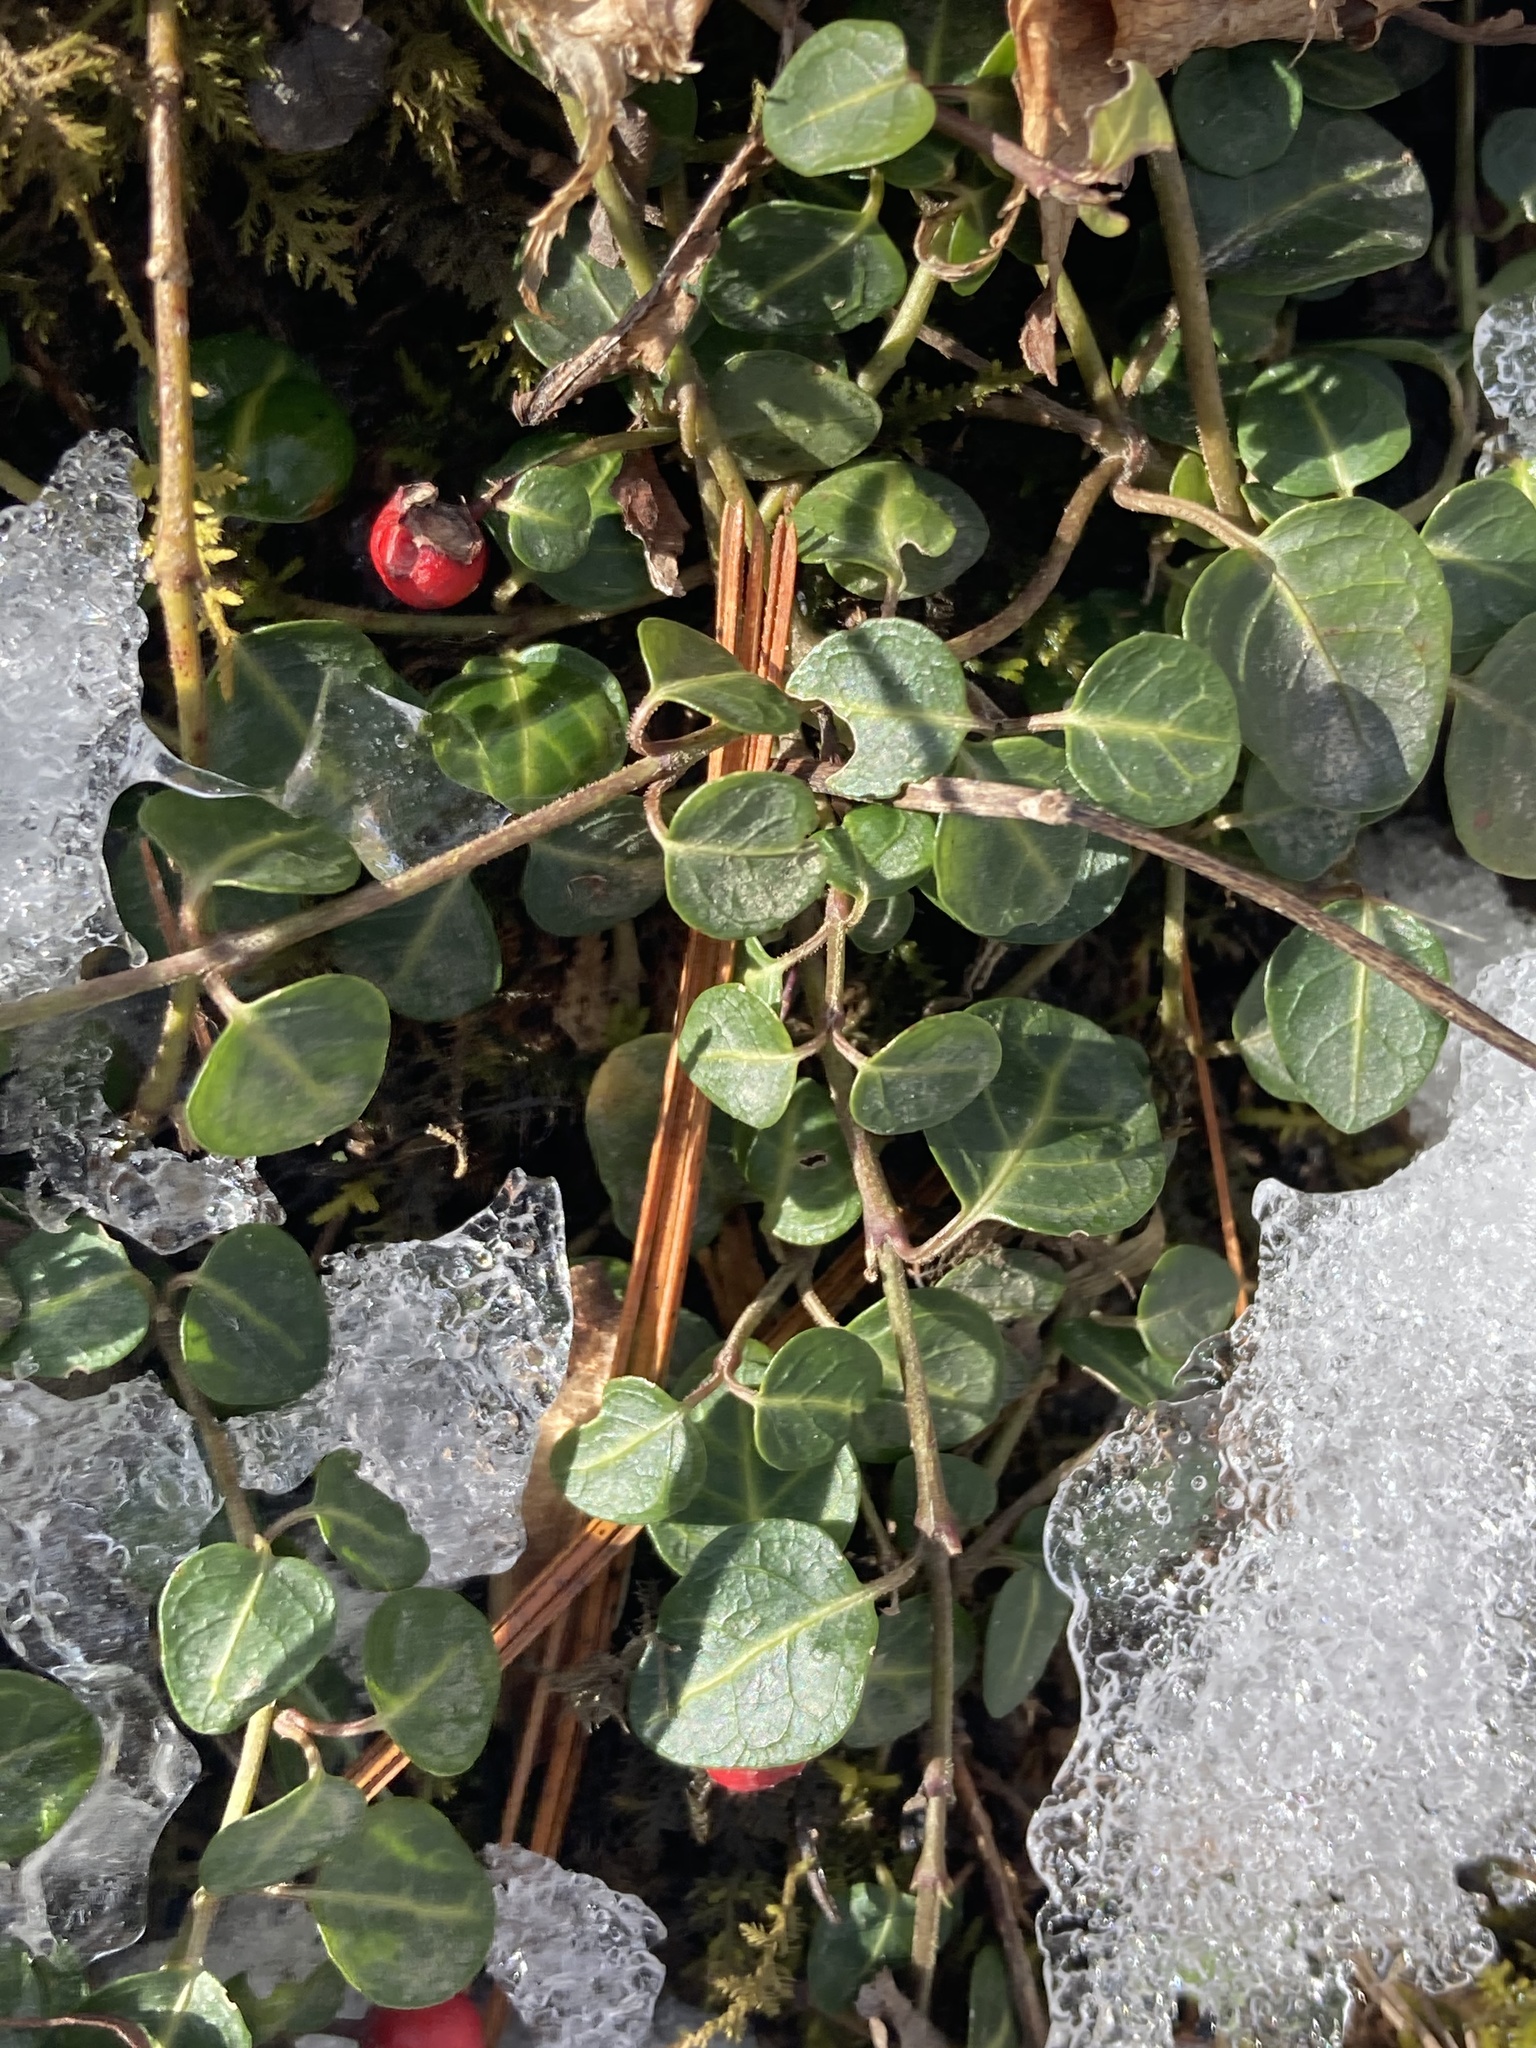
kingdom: Plantae
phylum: Tracheophyta
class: Magnoliopsida
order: Gentianales
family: Rubiaceae
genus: Mitchella
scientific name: Mitchella repens
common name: Partridge-berry
